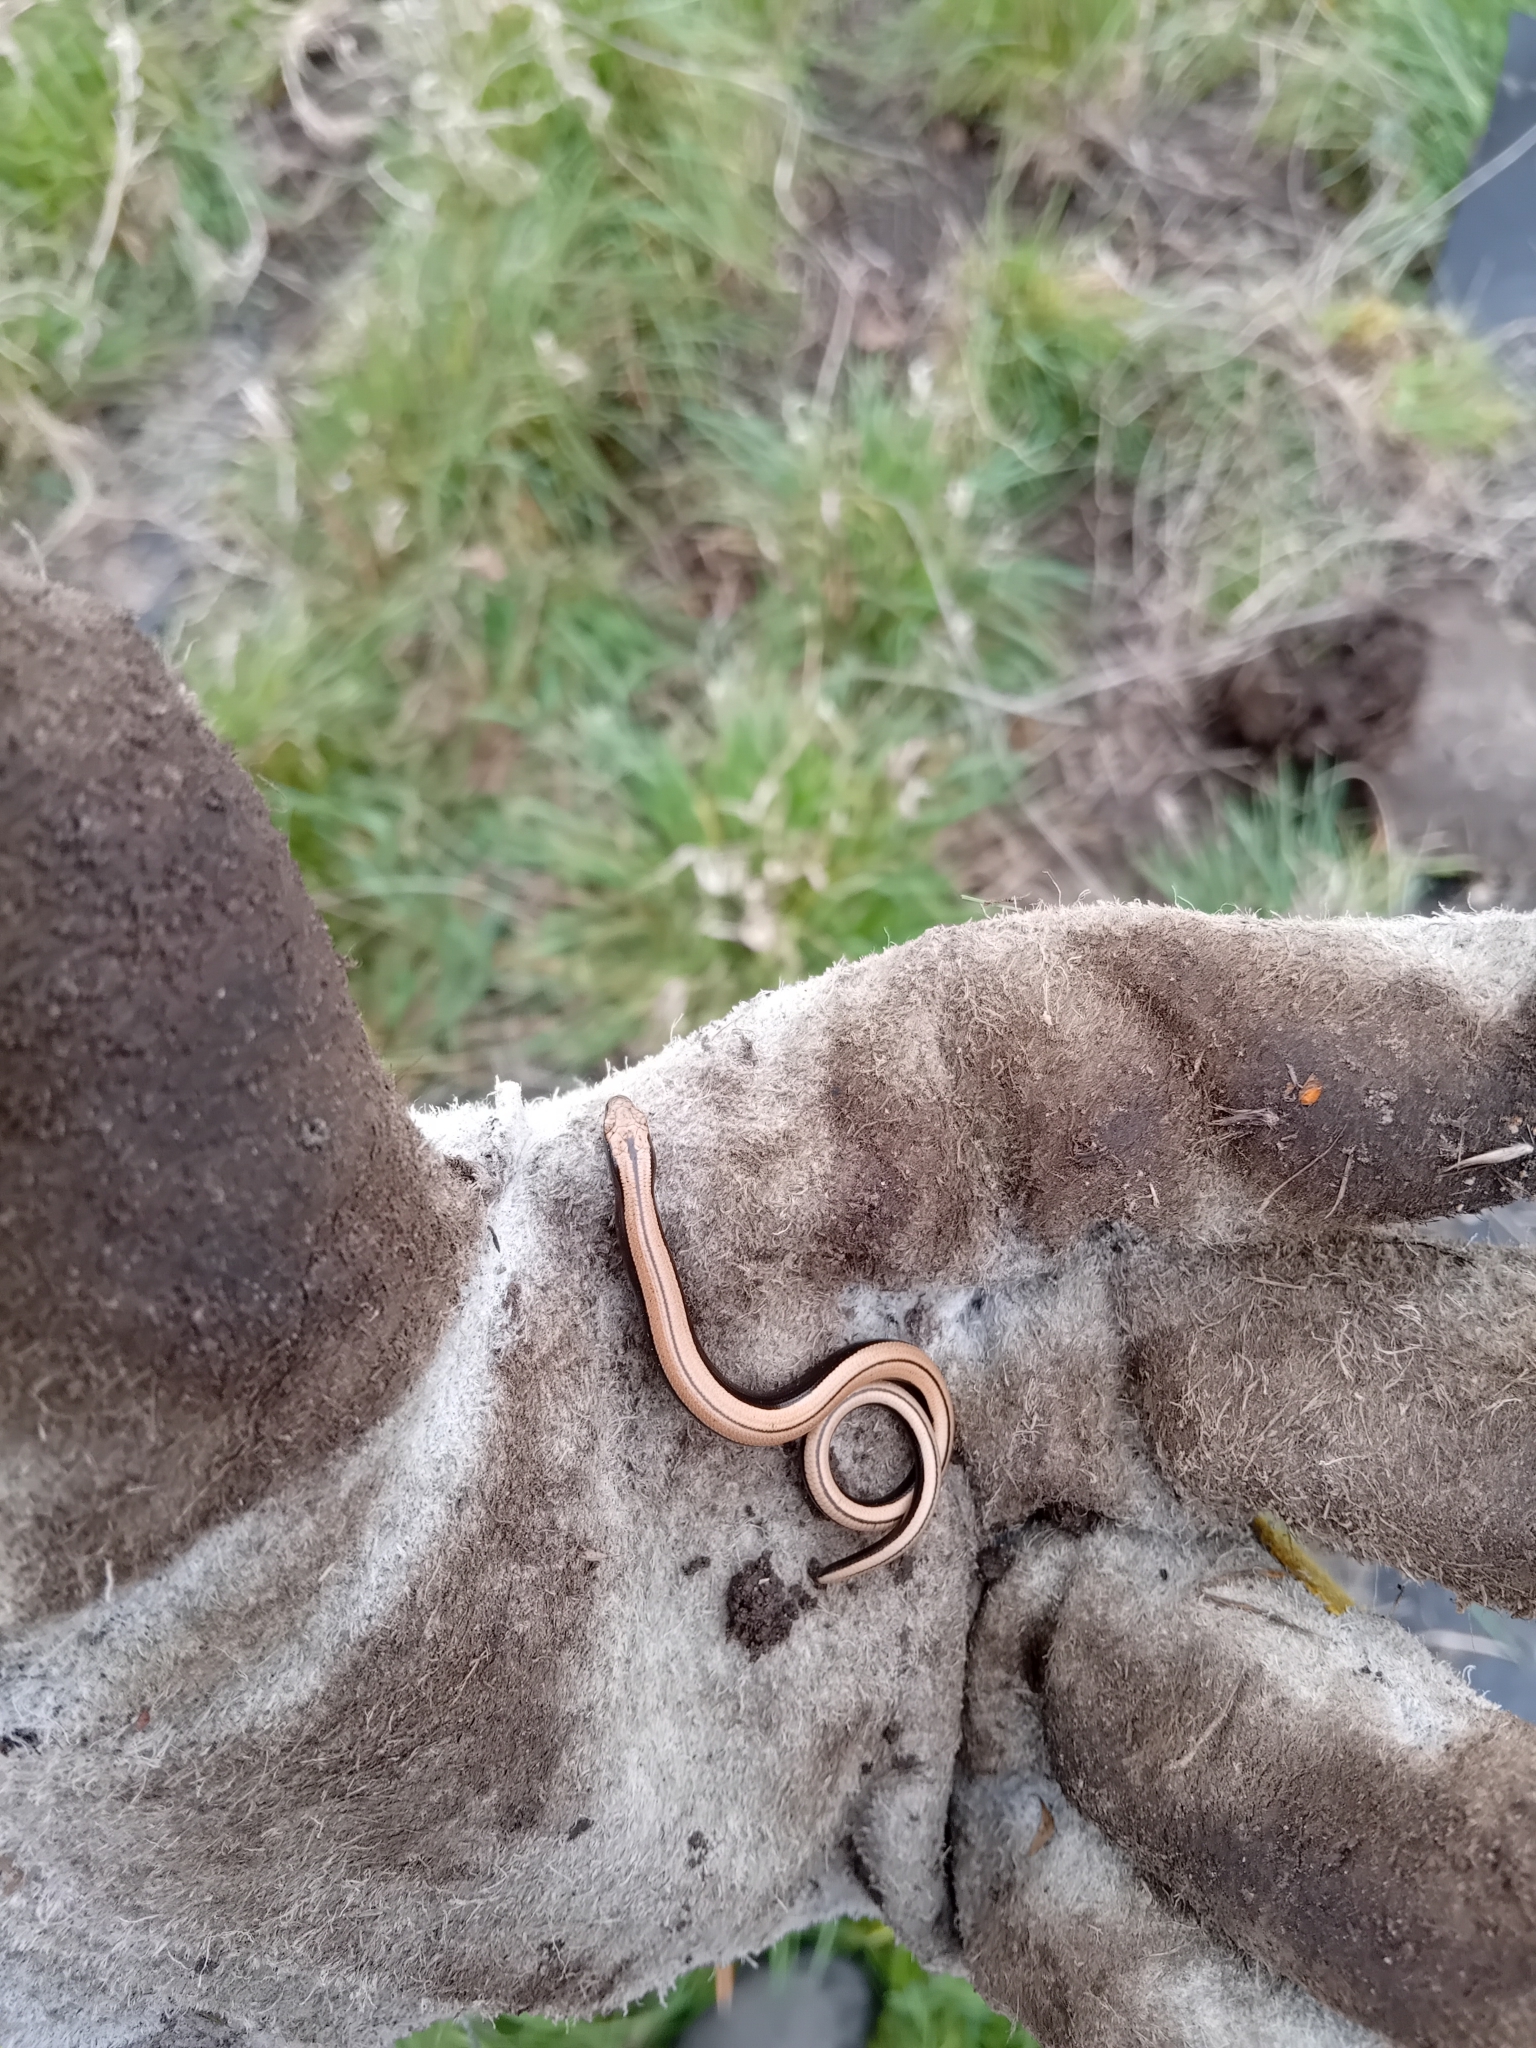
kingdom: Animalia
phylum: Chordata
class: Squamata
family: Anguidae
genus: Anguis
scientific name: Anguis fragilis
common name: Slow worm
